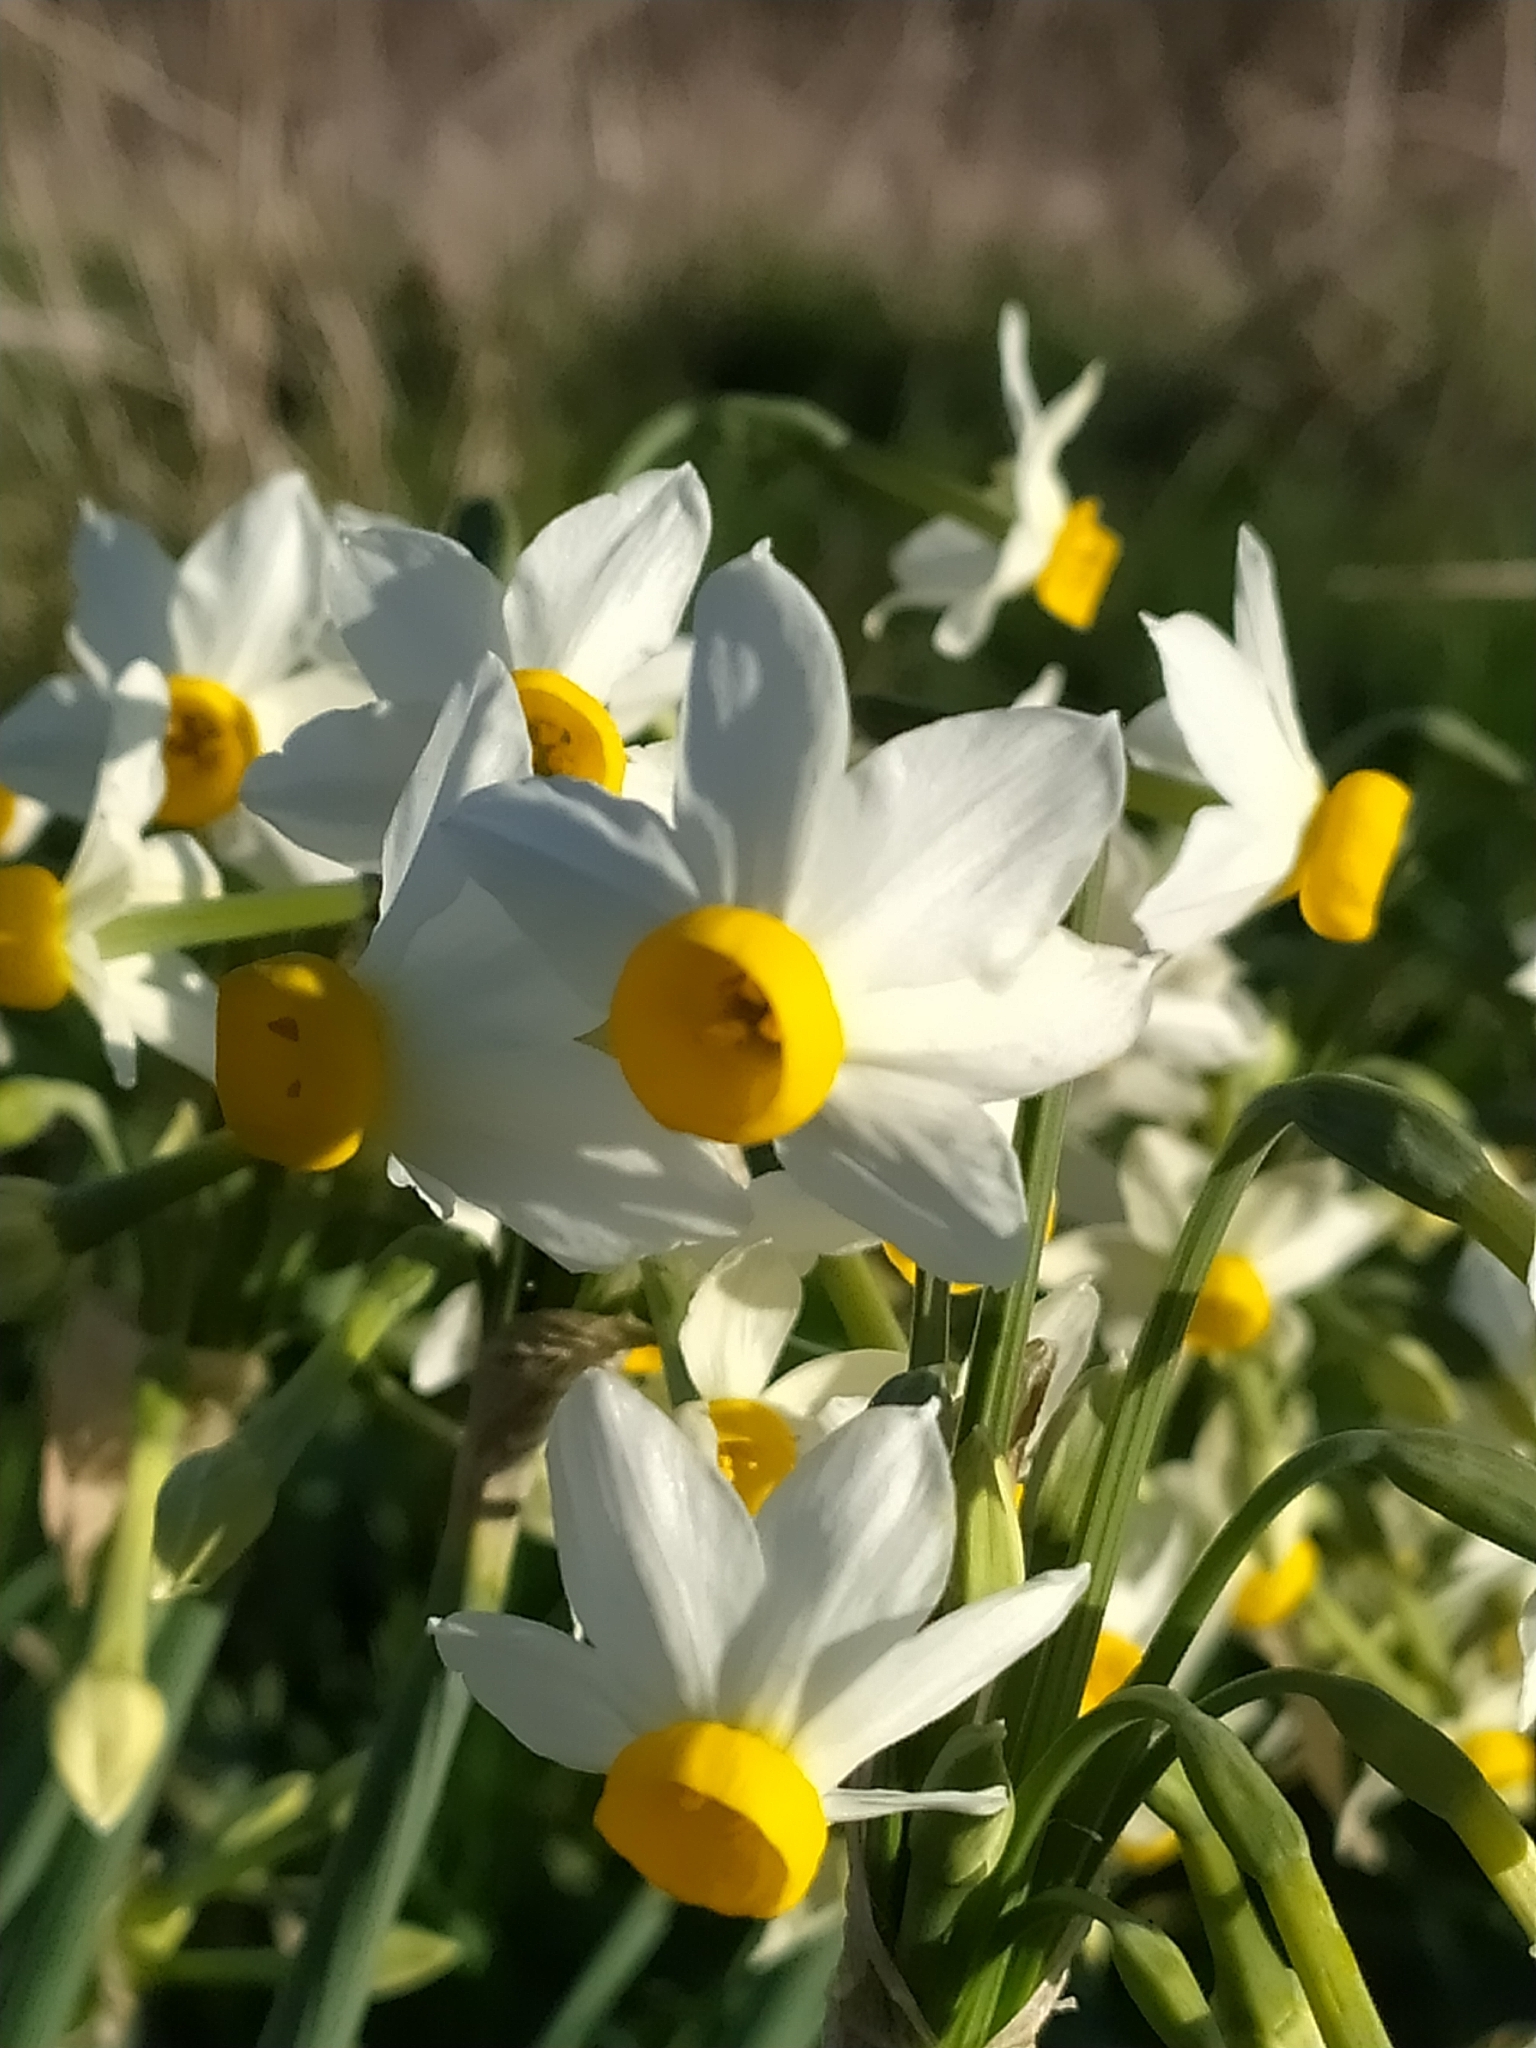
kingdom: Plantae
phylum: Tracheophyta
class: Liliopsida
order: Asparagales
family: Amaryllidaceae
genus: Narcissus
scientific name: Narcissus tazetta
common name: Bunch-flowered daffodil
